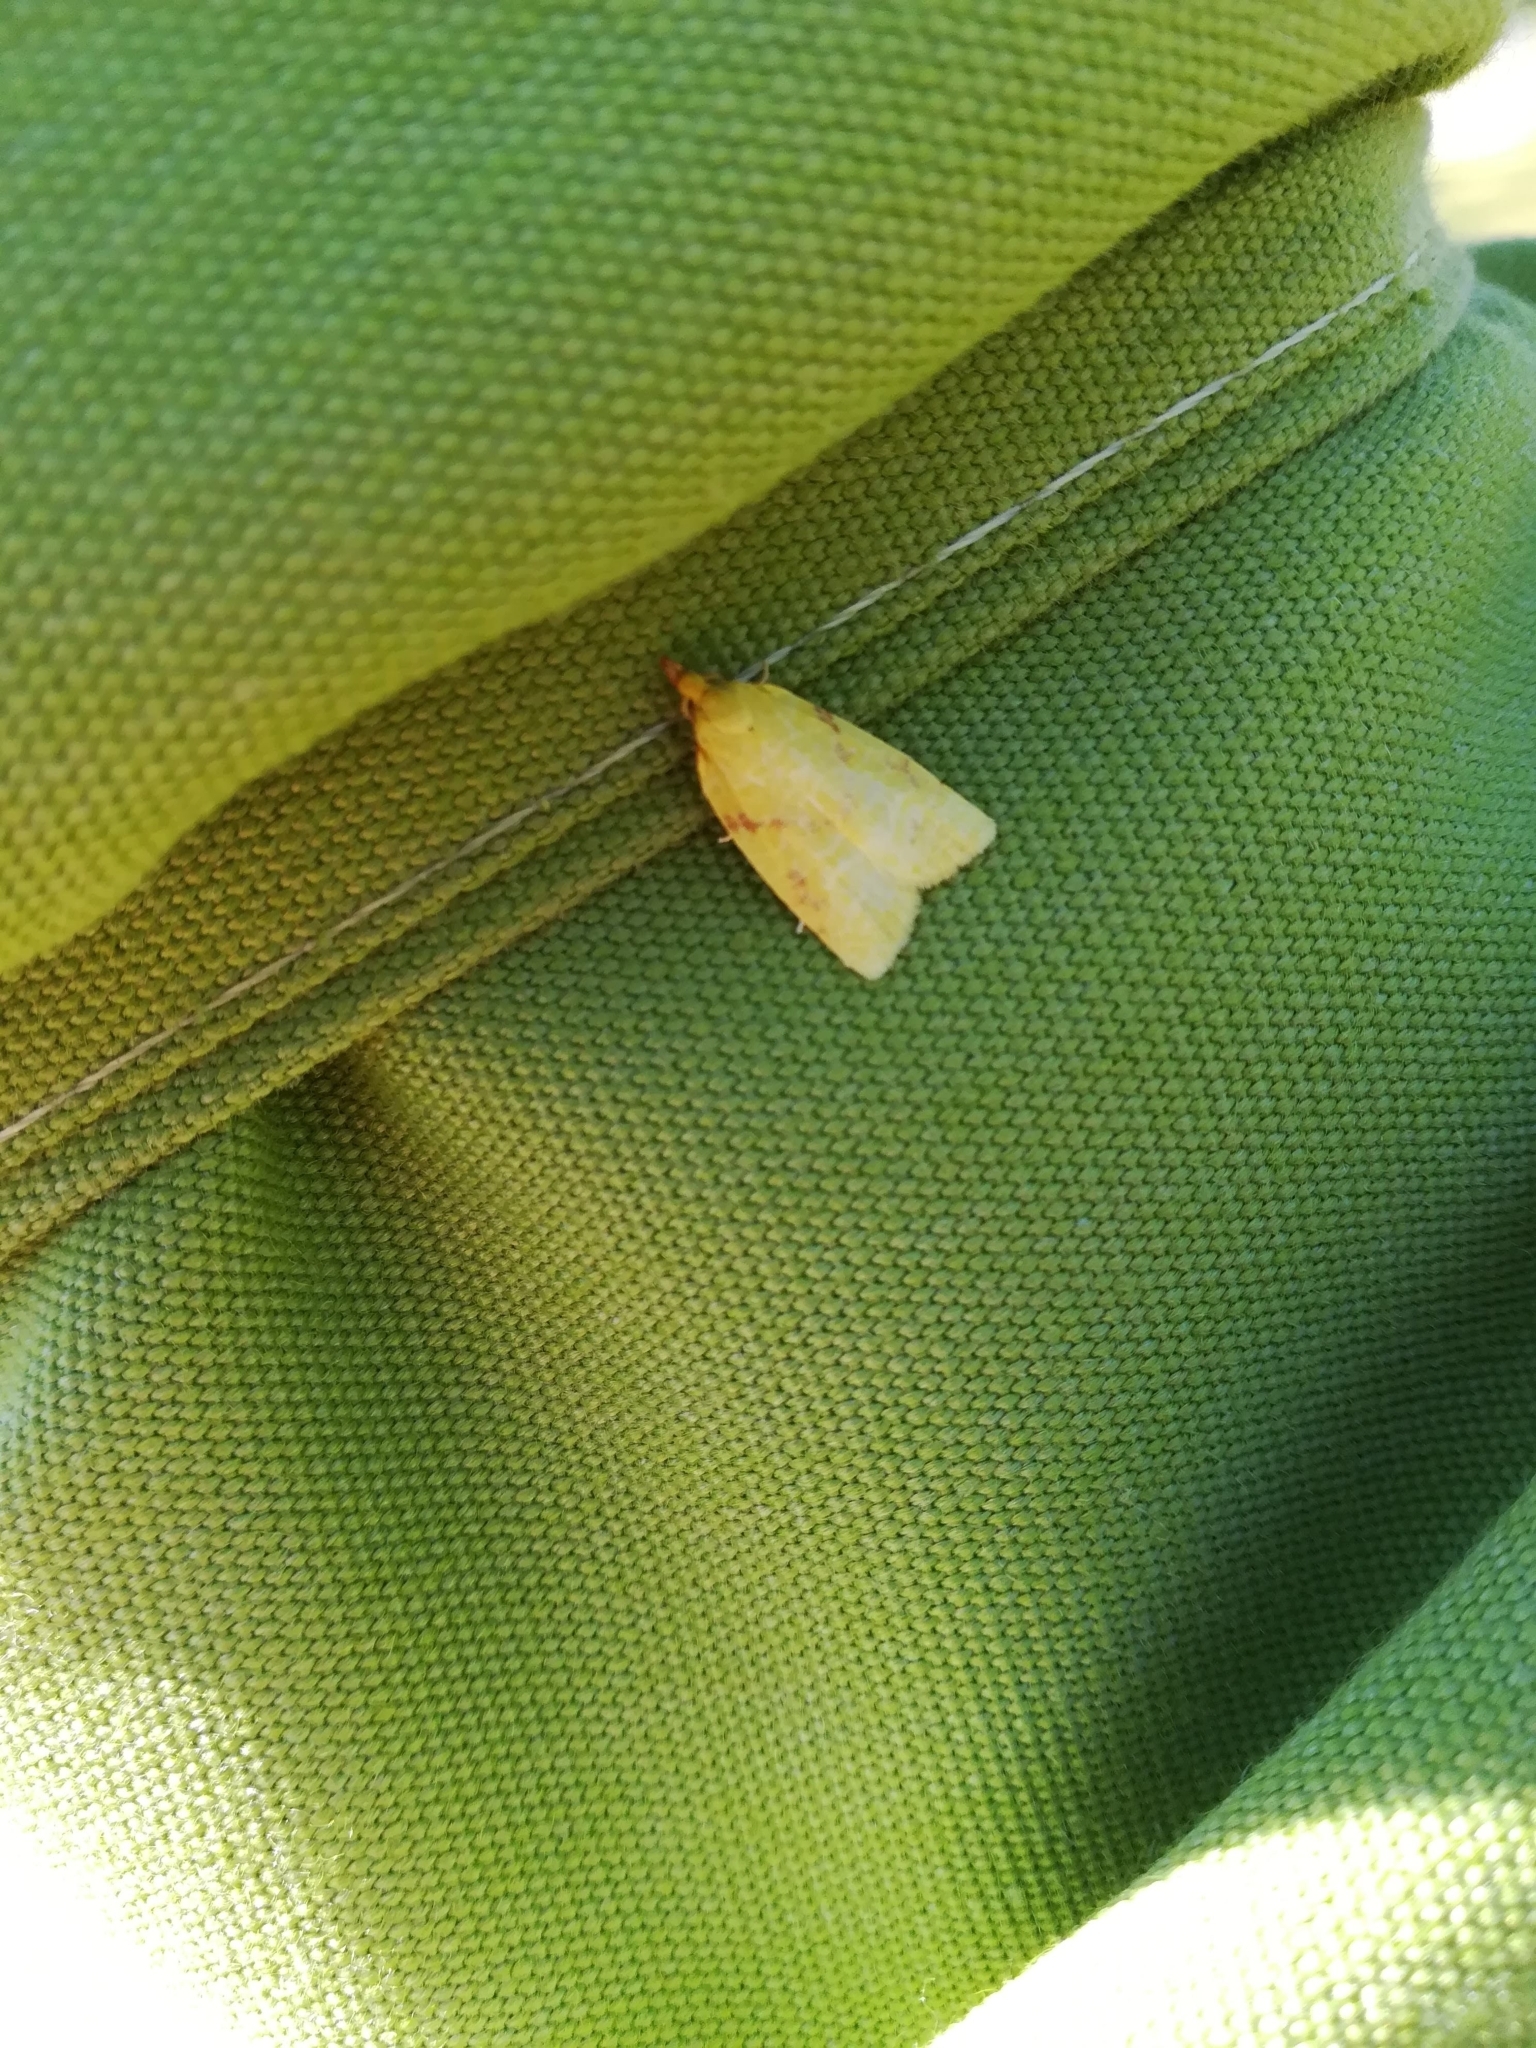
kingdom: Animalia
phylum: Arthropoda
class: Insecta
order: Lepidoptera
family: Tortricidae
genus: Cenopis
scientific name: Cenopis pettitana
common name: Maple-basswood leafroller moth
